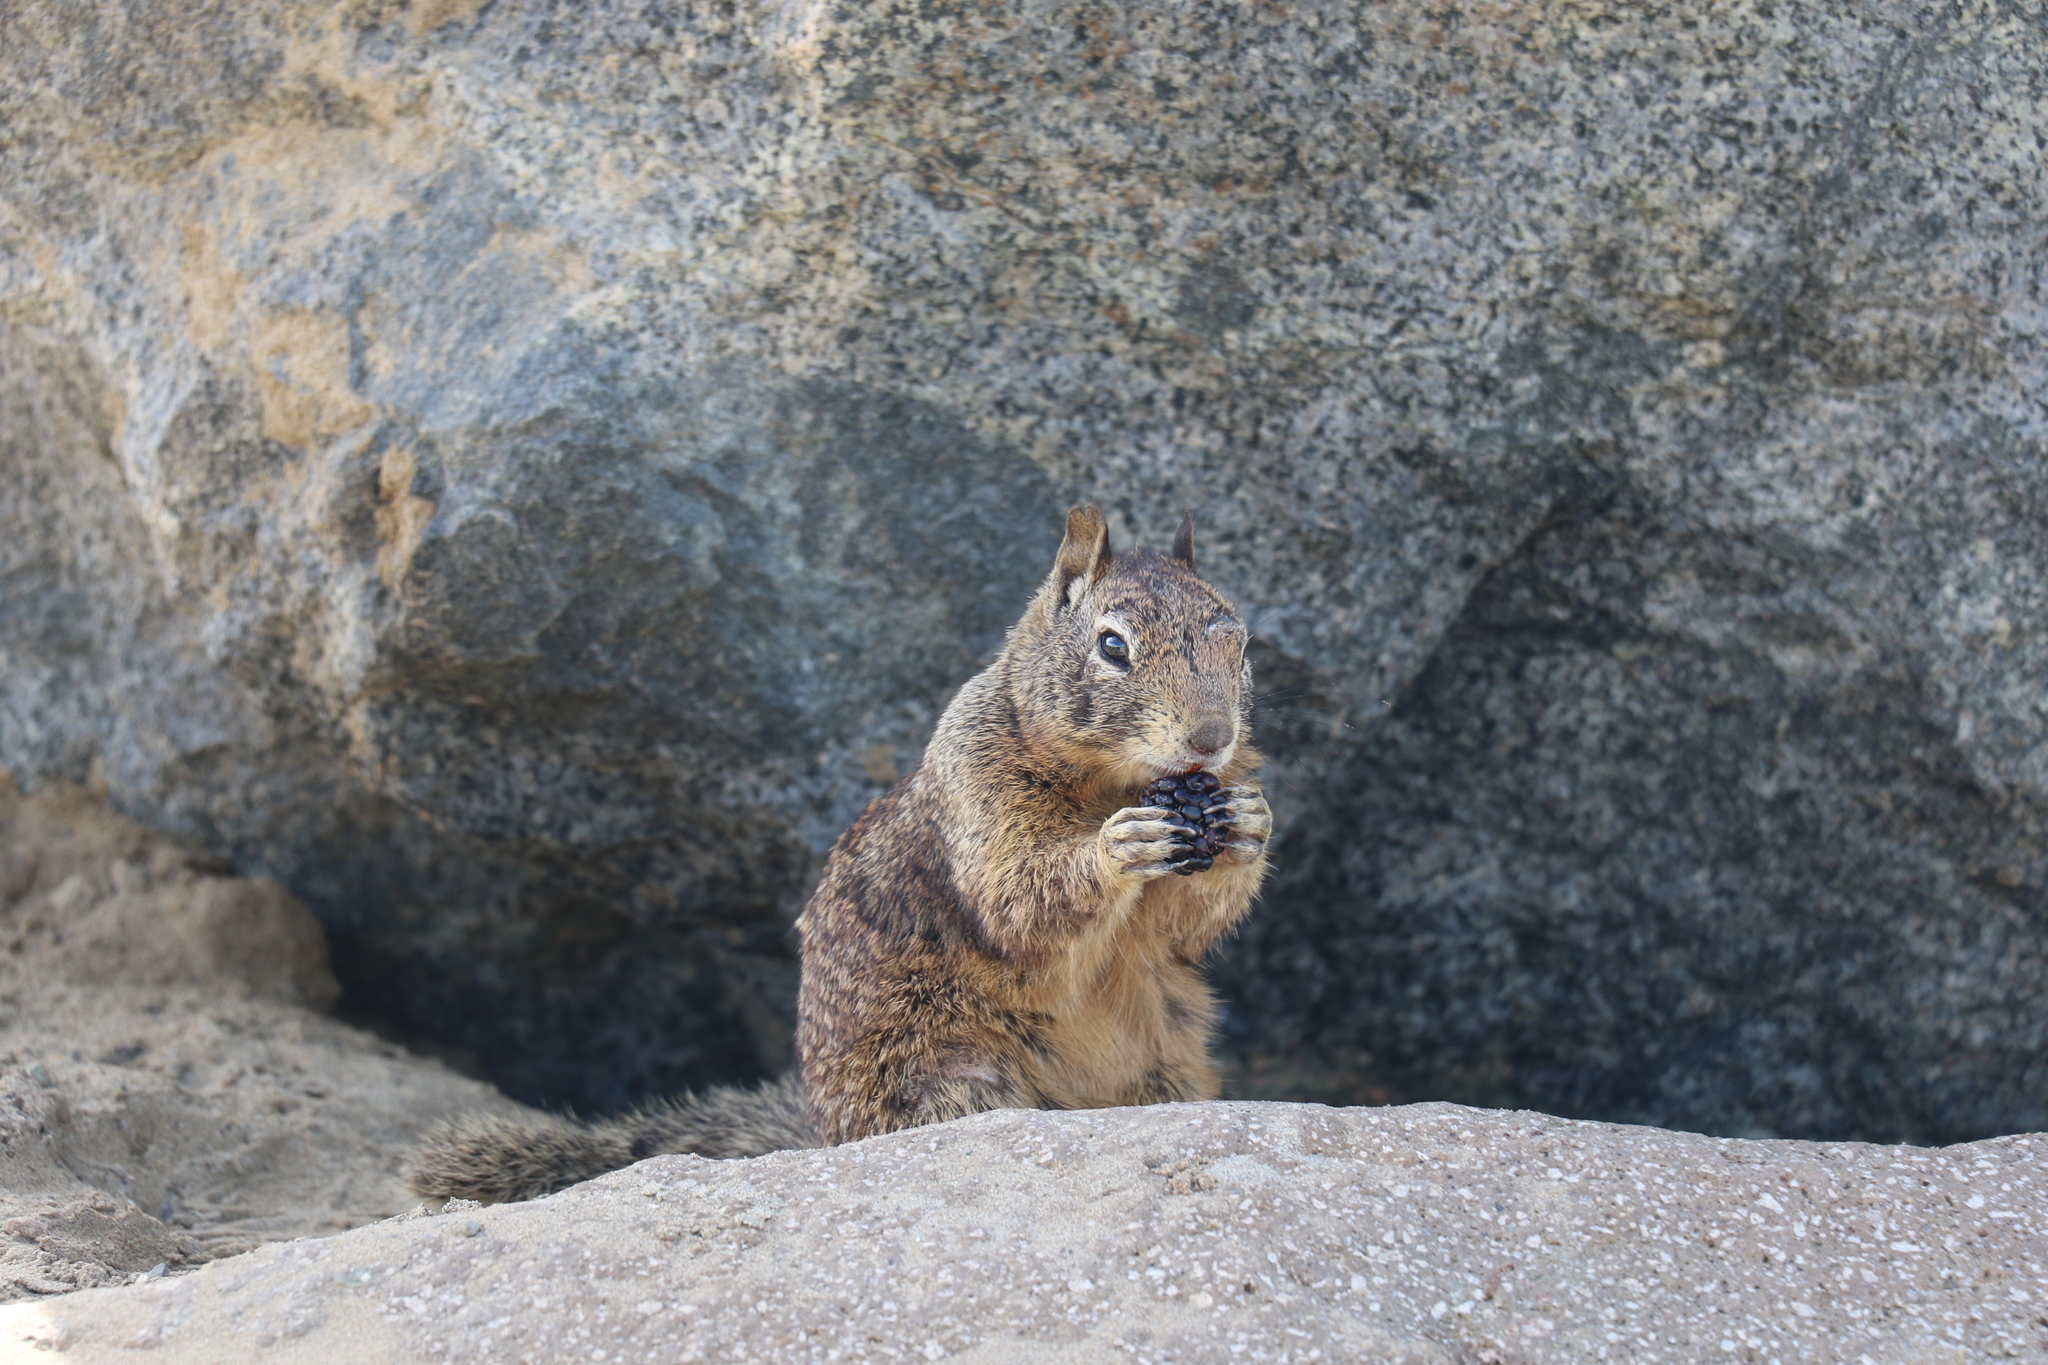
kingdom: Animalia
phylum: Chordata
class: Mammalia
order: Rodentia
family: Sciuridae
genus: Otospermophilus
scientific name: Otospermophilus beecheyi
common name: California ground squirrel
